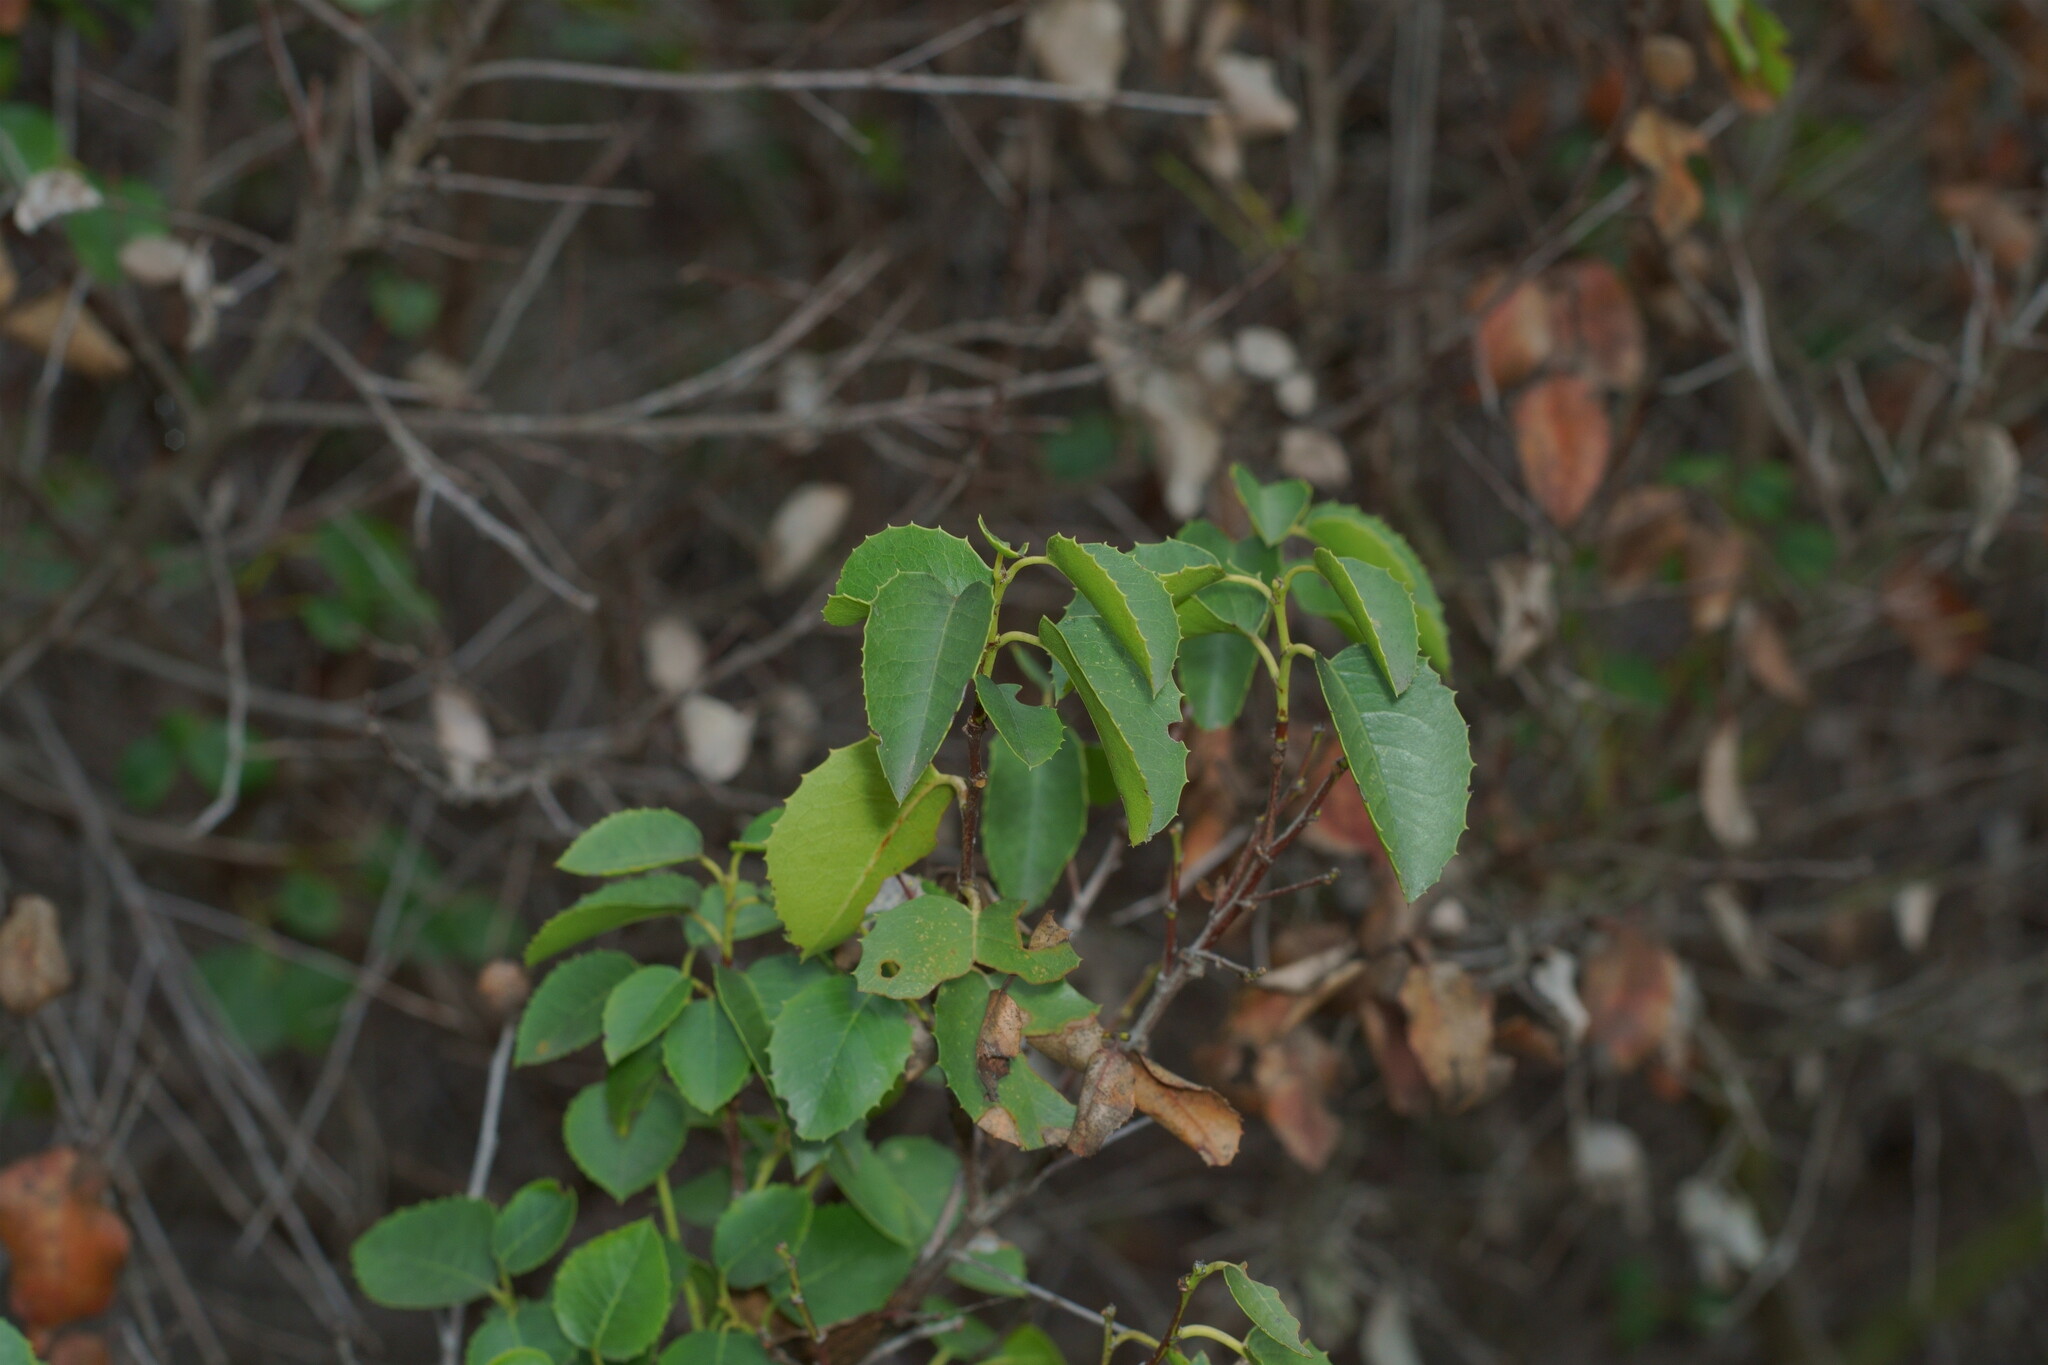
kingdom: Plantae
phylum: Tracheophyta
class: Magnoliopsida
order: Rosales
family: Rosaceae
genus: Prunus
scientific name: Prunus ilicifolia
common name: Hollyleaf cherry
